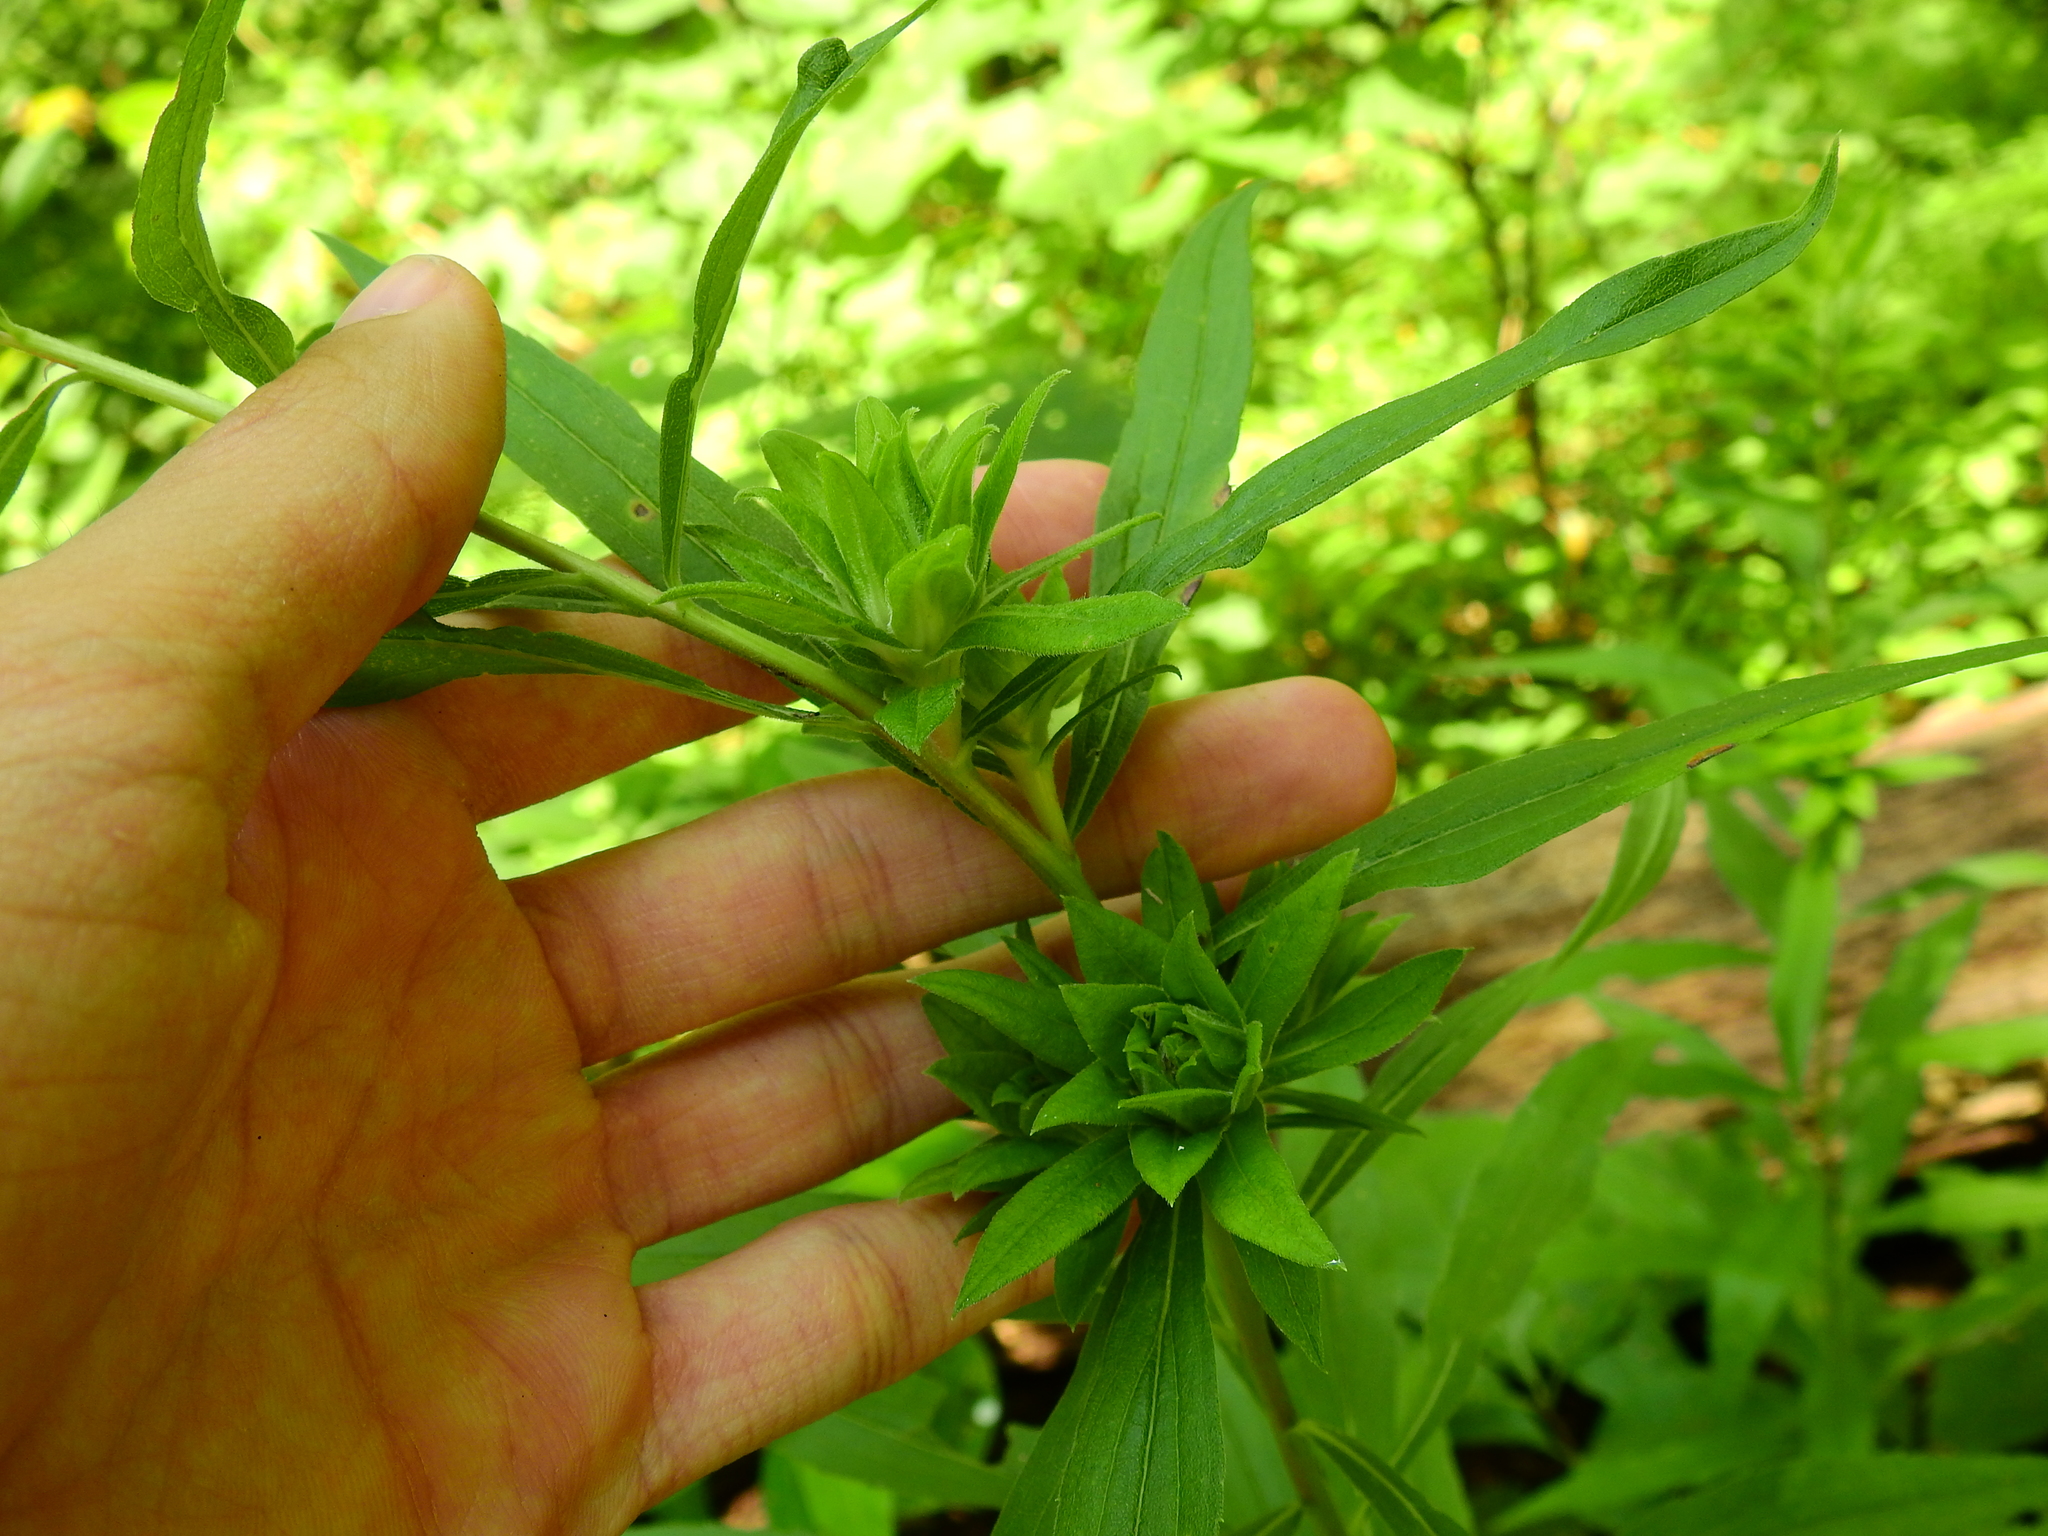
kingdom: Animalia
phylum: Arthropoda
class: Insecta
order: Diptera
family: Tephritidae
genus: Procecidochares
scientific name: Procecidochares atra
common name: Goldenrod brussels sprout gall fly
